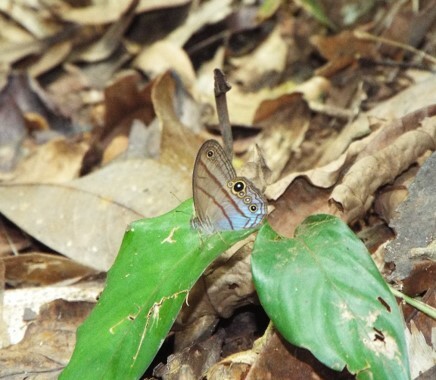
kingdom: Animalia
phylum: Arthropoda
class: Insecta
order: Lepidoptera
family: Nymphalidae
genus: Amiga
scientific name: Amiga arnaca
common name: Blue-topped satyr
